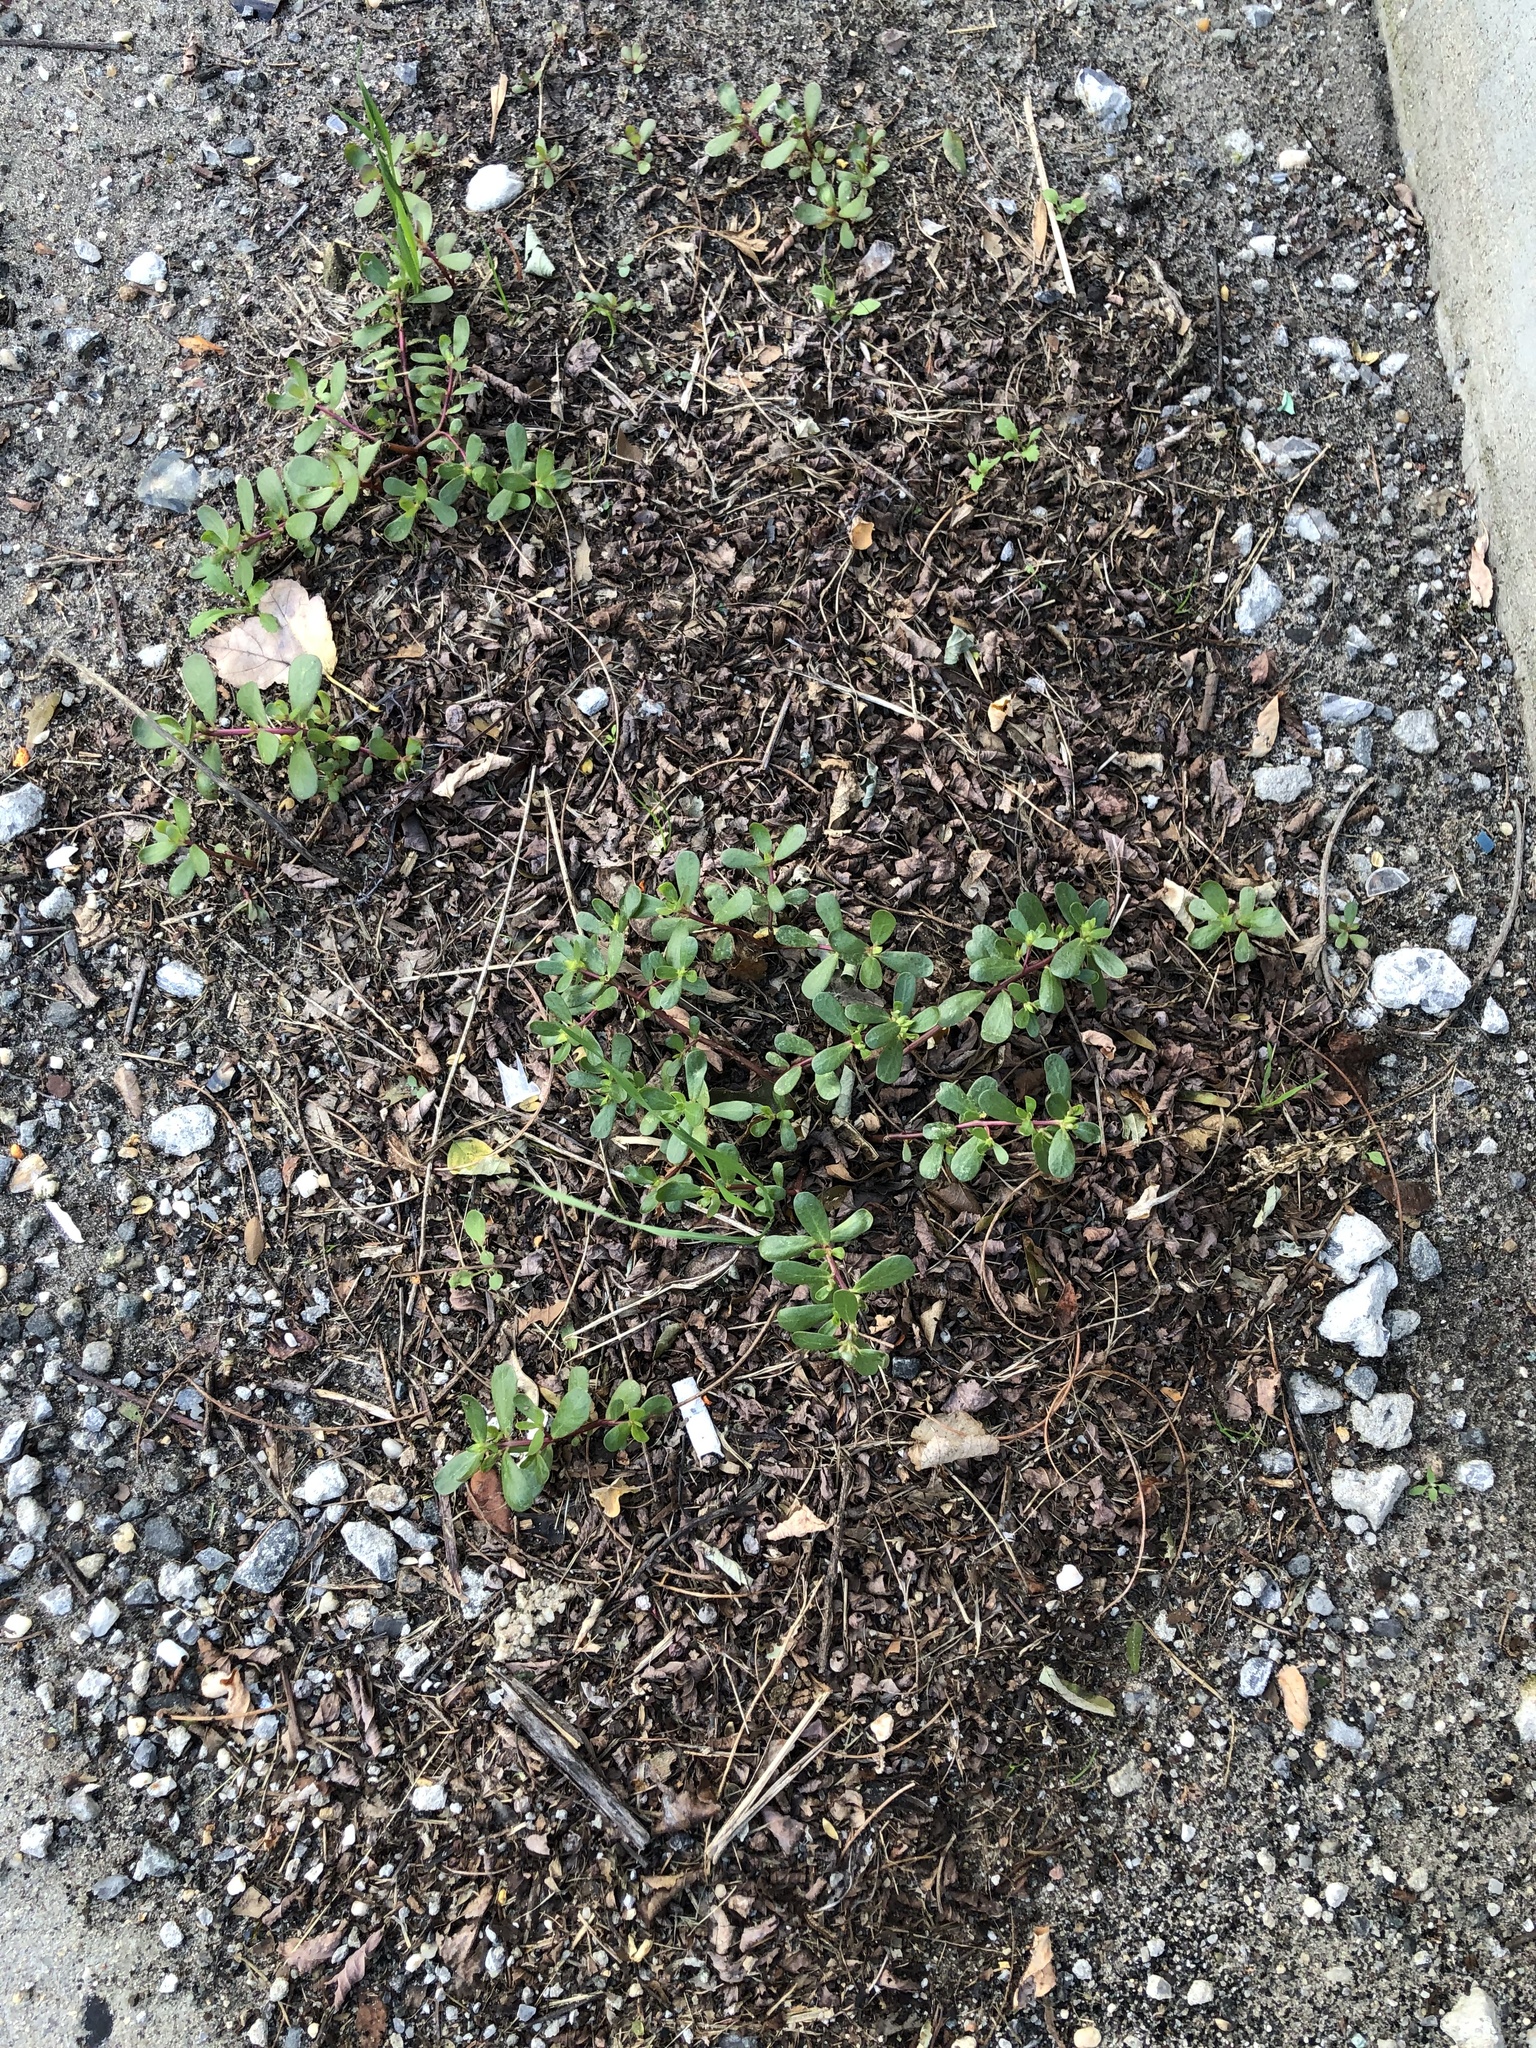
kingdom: Plantae
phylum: Tracheophyta
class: Magnoliopsida
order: Caryophyllales
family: Portulacaceae
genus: Portulaca
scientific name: Portulaca oleracea
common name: Common purslane
